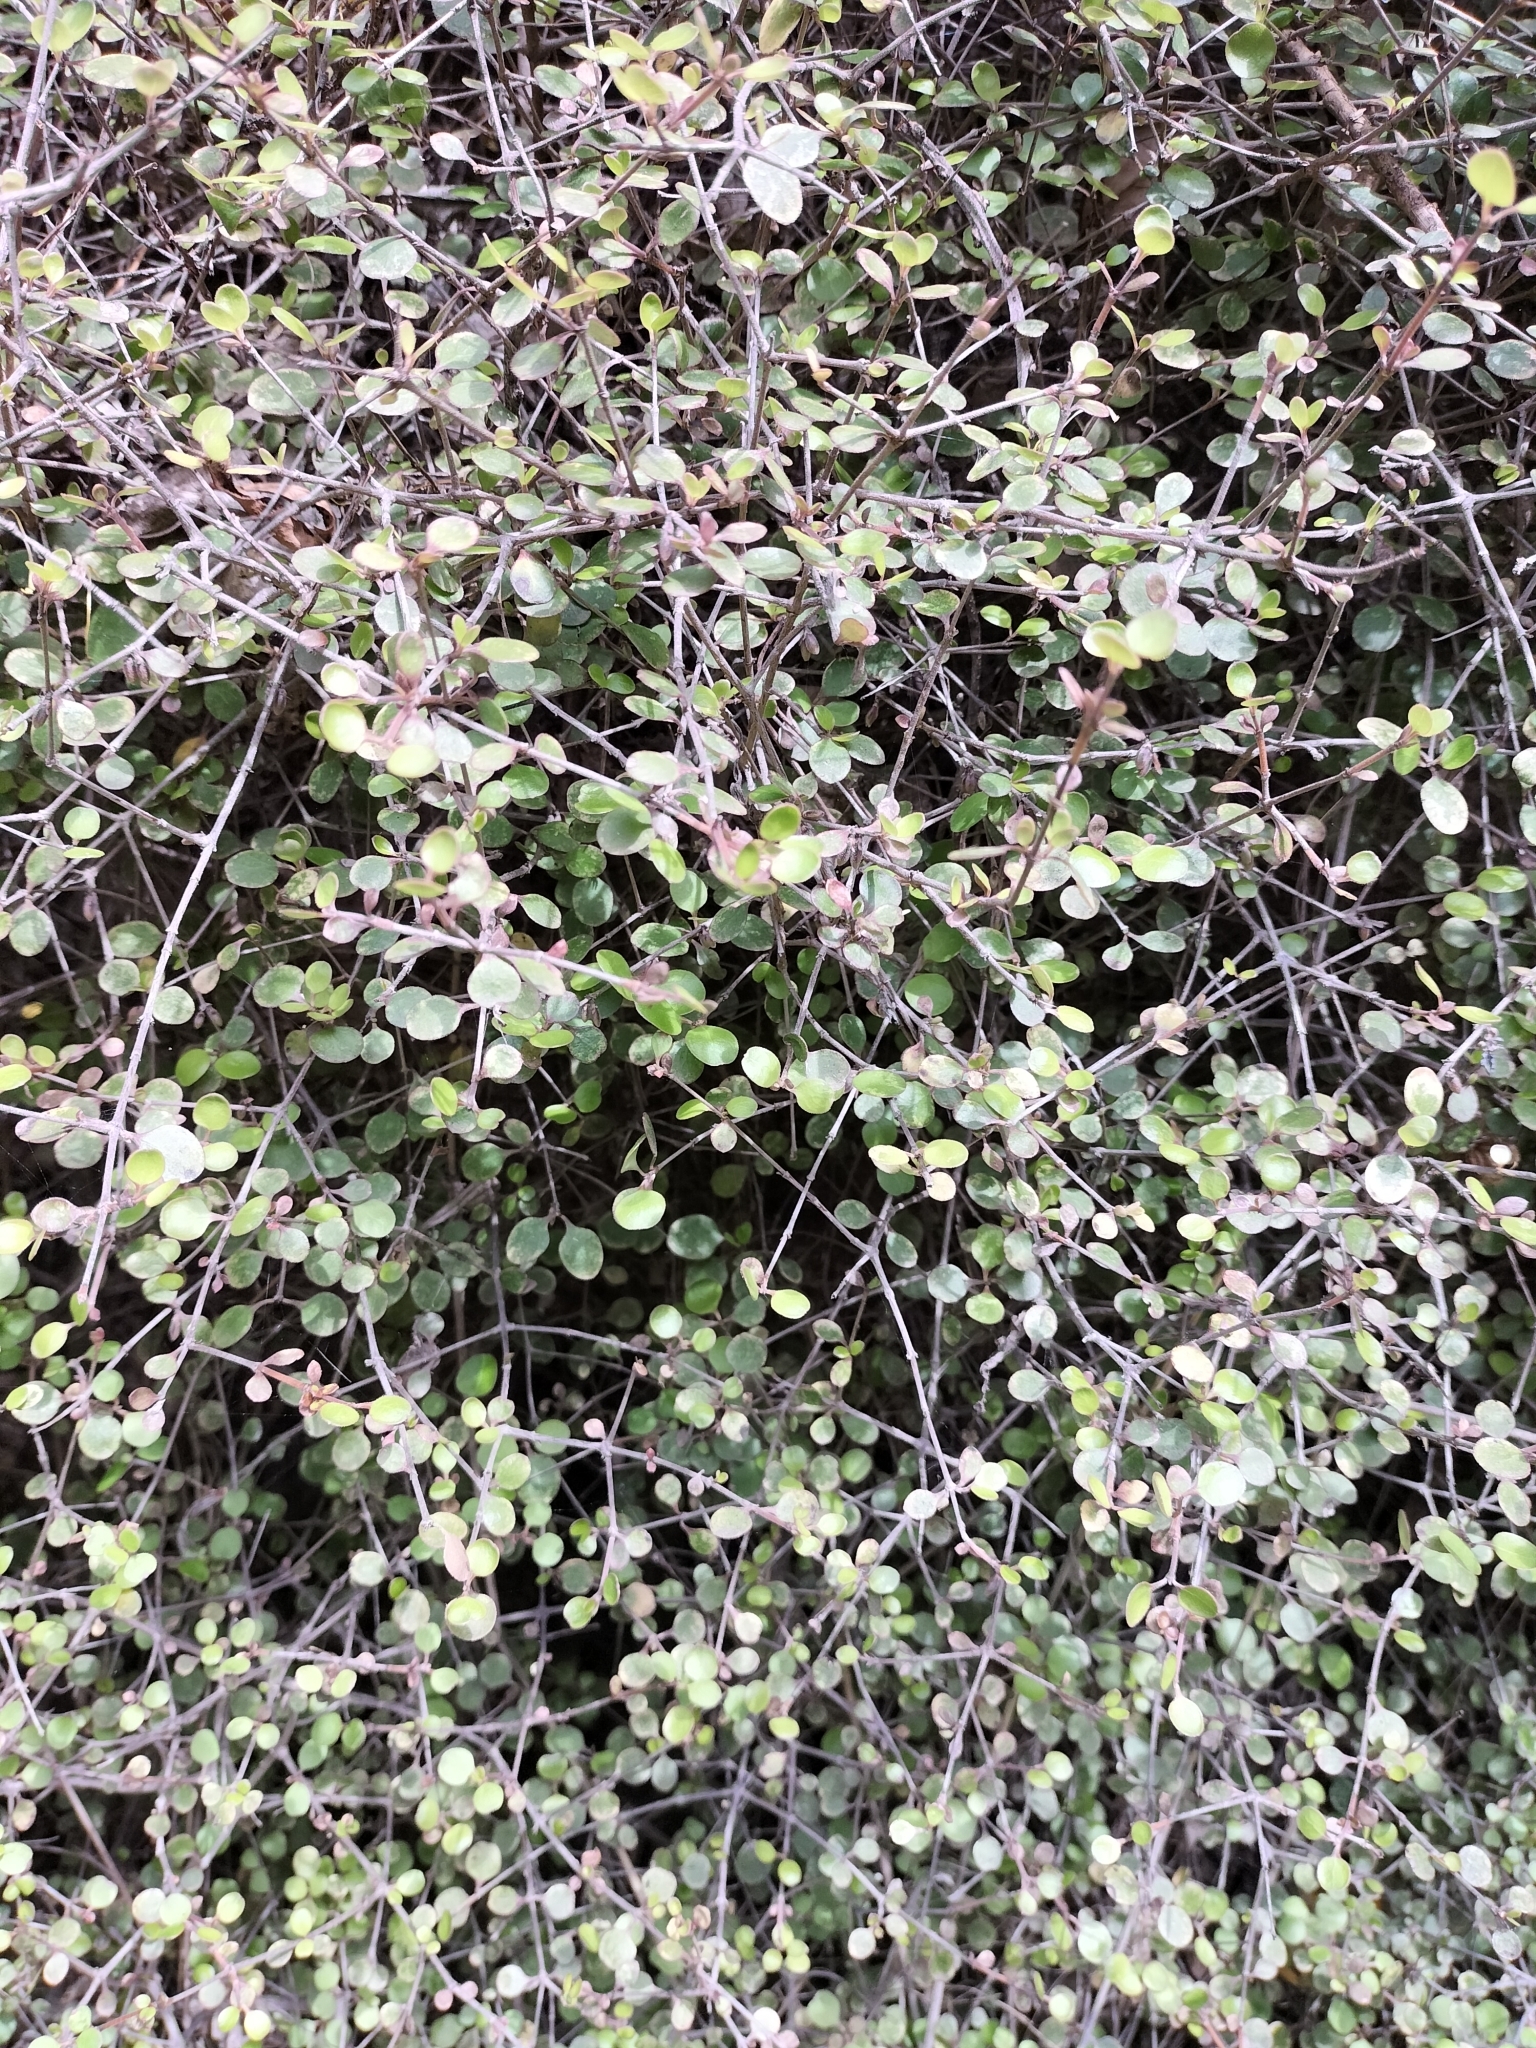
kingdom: Plantae
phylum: Tracheophyta
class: Magnoliopsida
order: Gentianales
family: Rubiaceae
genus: Coprosma
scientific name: Coprosma crassifolia
